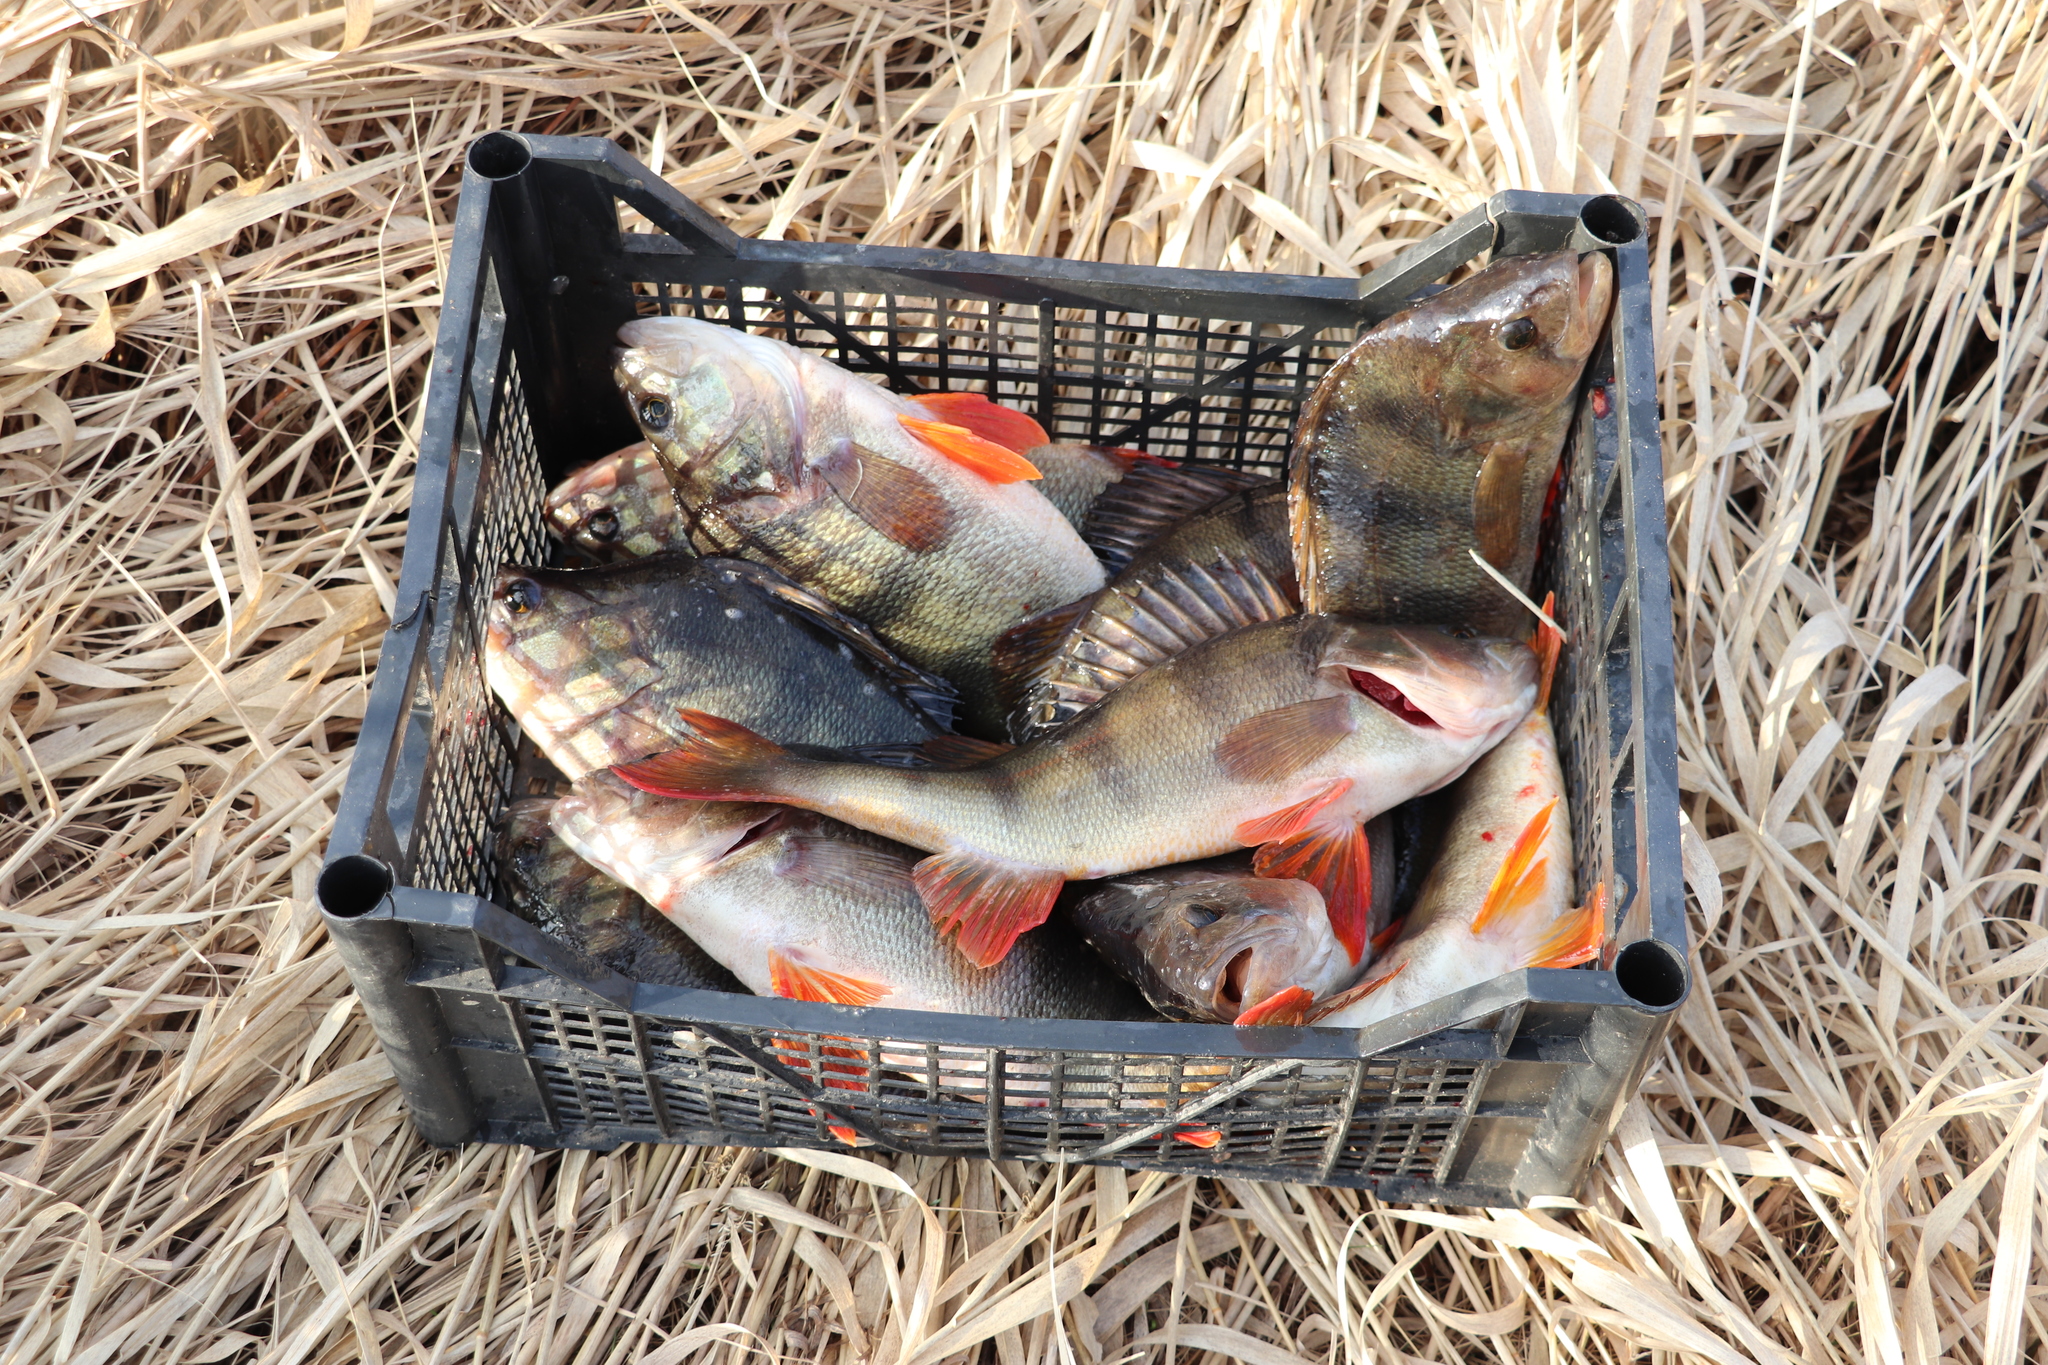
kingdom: Animalia
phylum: Chordata
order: Perciformes
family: Percidae
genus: Perca
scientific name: Perca fluviatilis
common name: Perch
